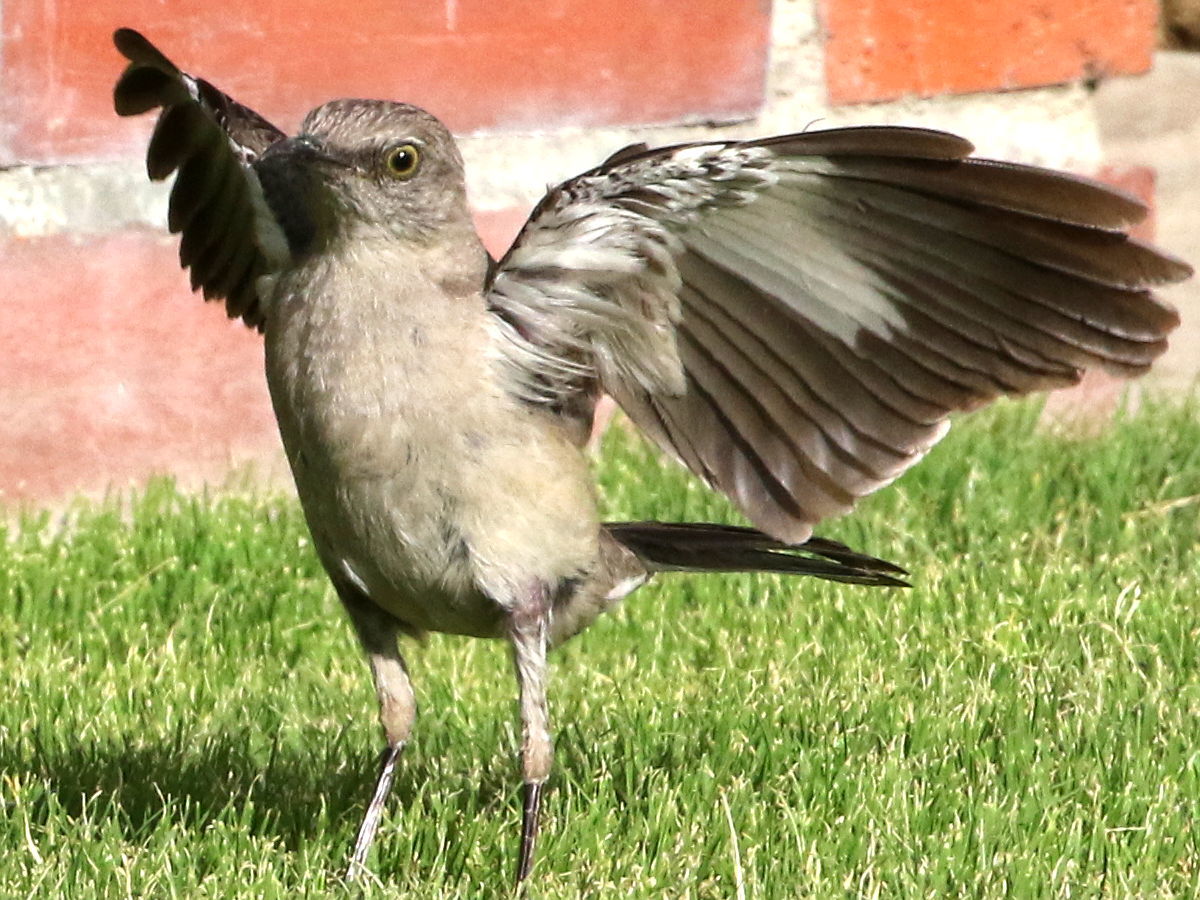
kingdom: Animalia
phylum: Chordata
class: Aves
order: Passeriformes
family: Mimidae
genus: Mimus
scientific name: Mimus polyglottos
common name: Northern mockingbird
